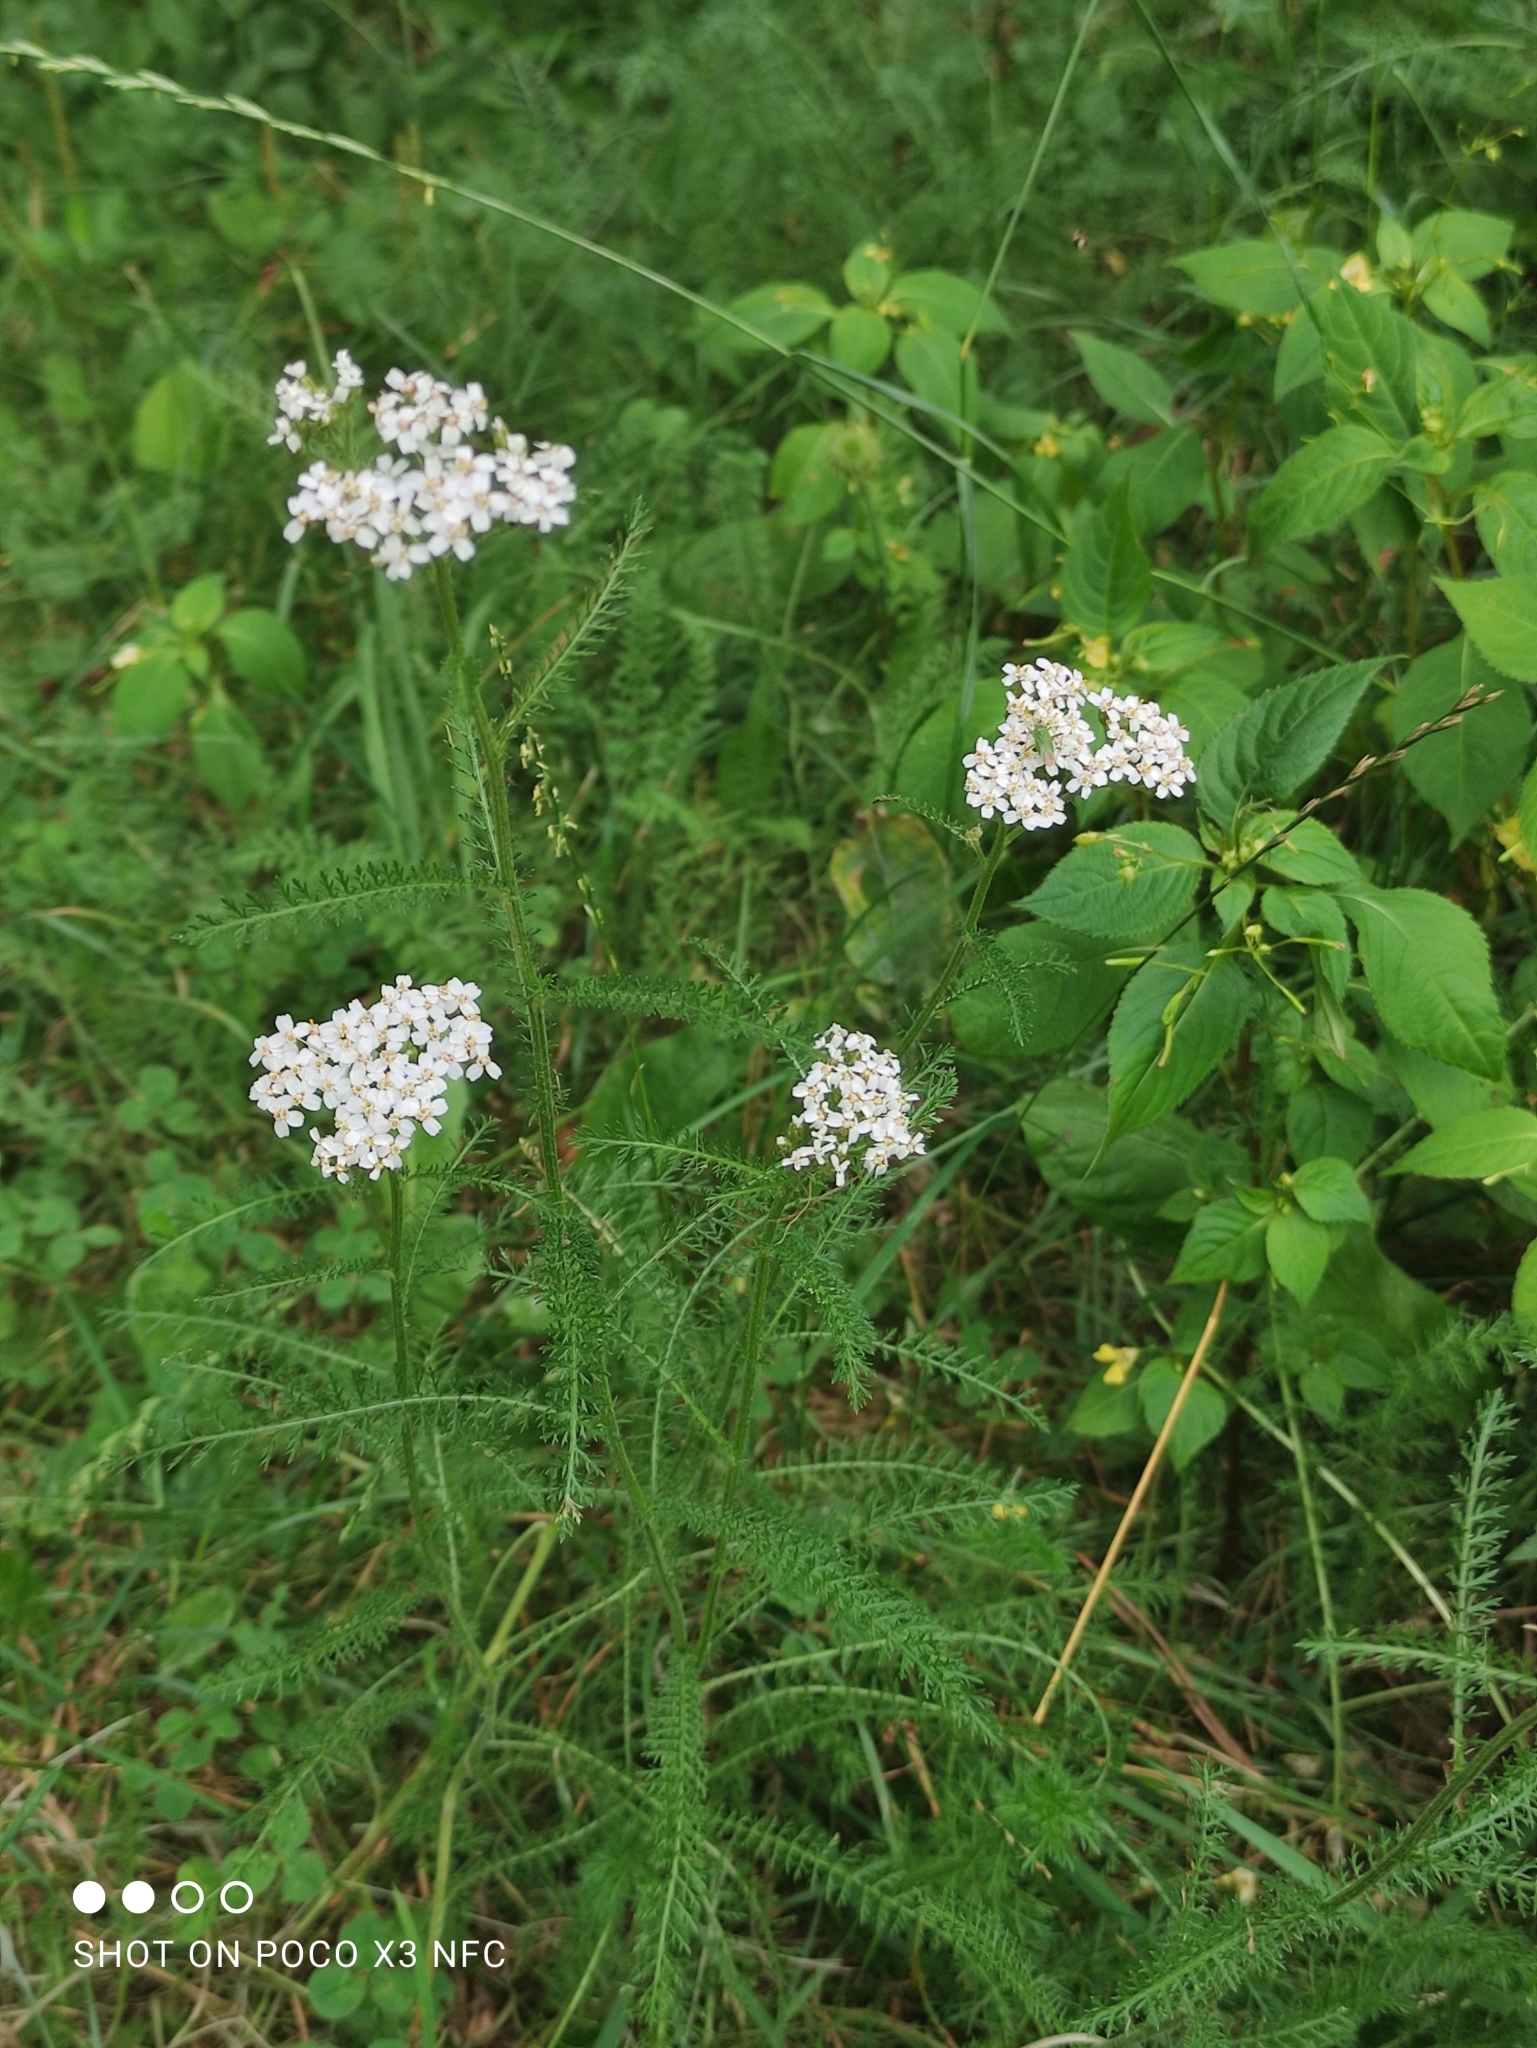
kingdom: Plantae
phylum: Tracheophyta
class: Magnoliopsida
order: Asterales
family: Asteraceae
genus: Achillea
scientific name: Achillea millefolium
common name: Yarrow
